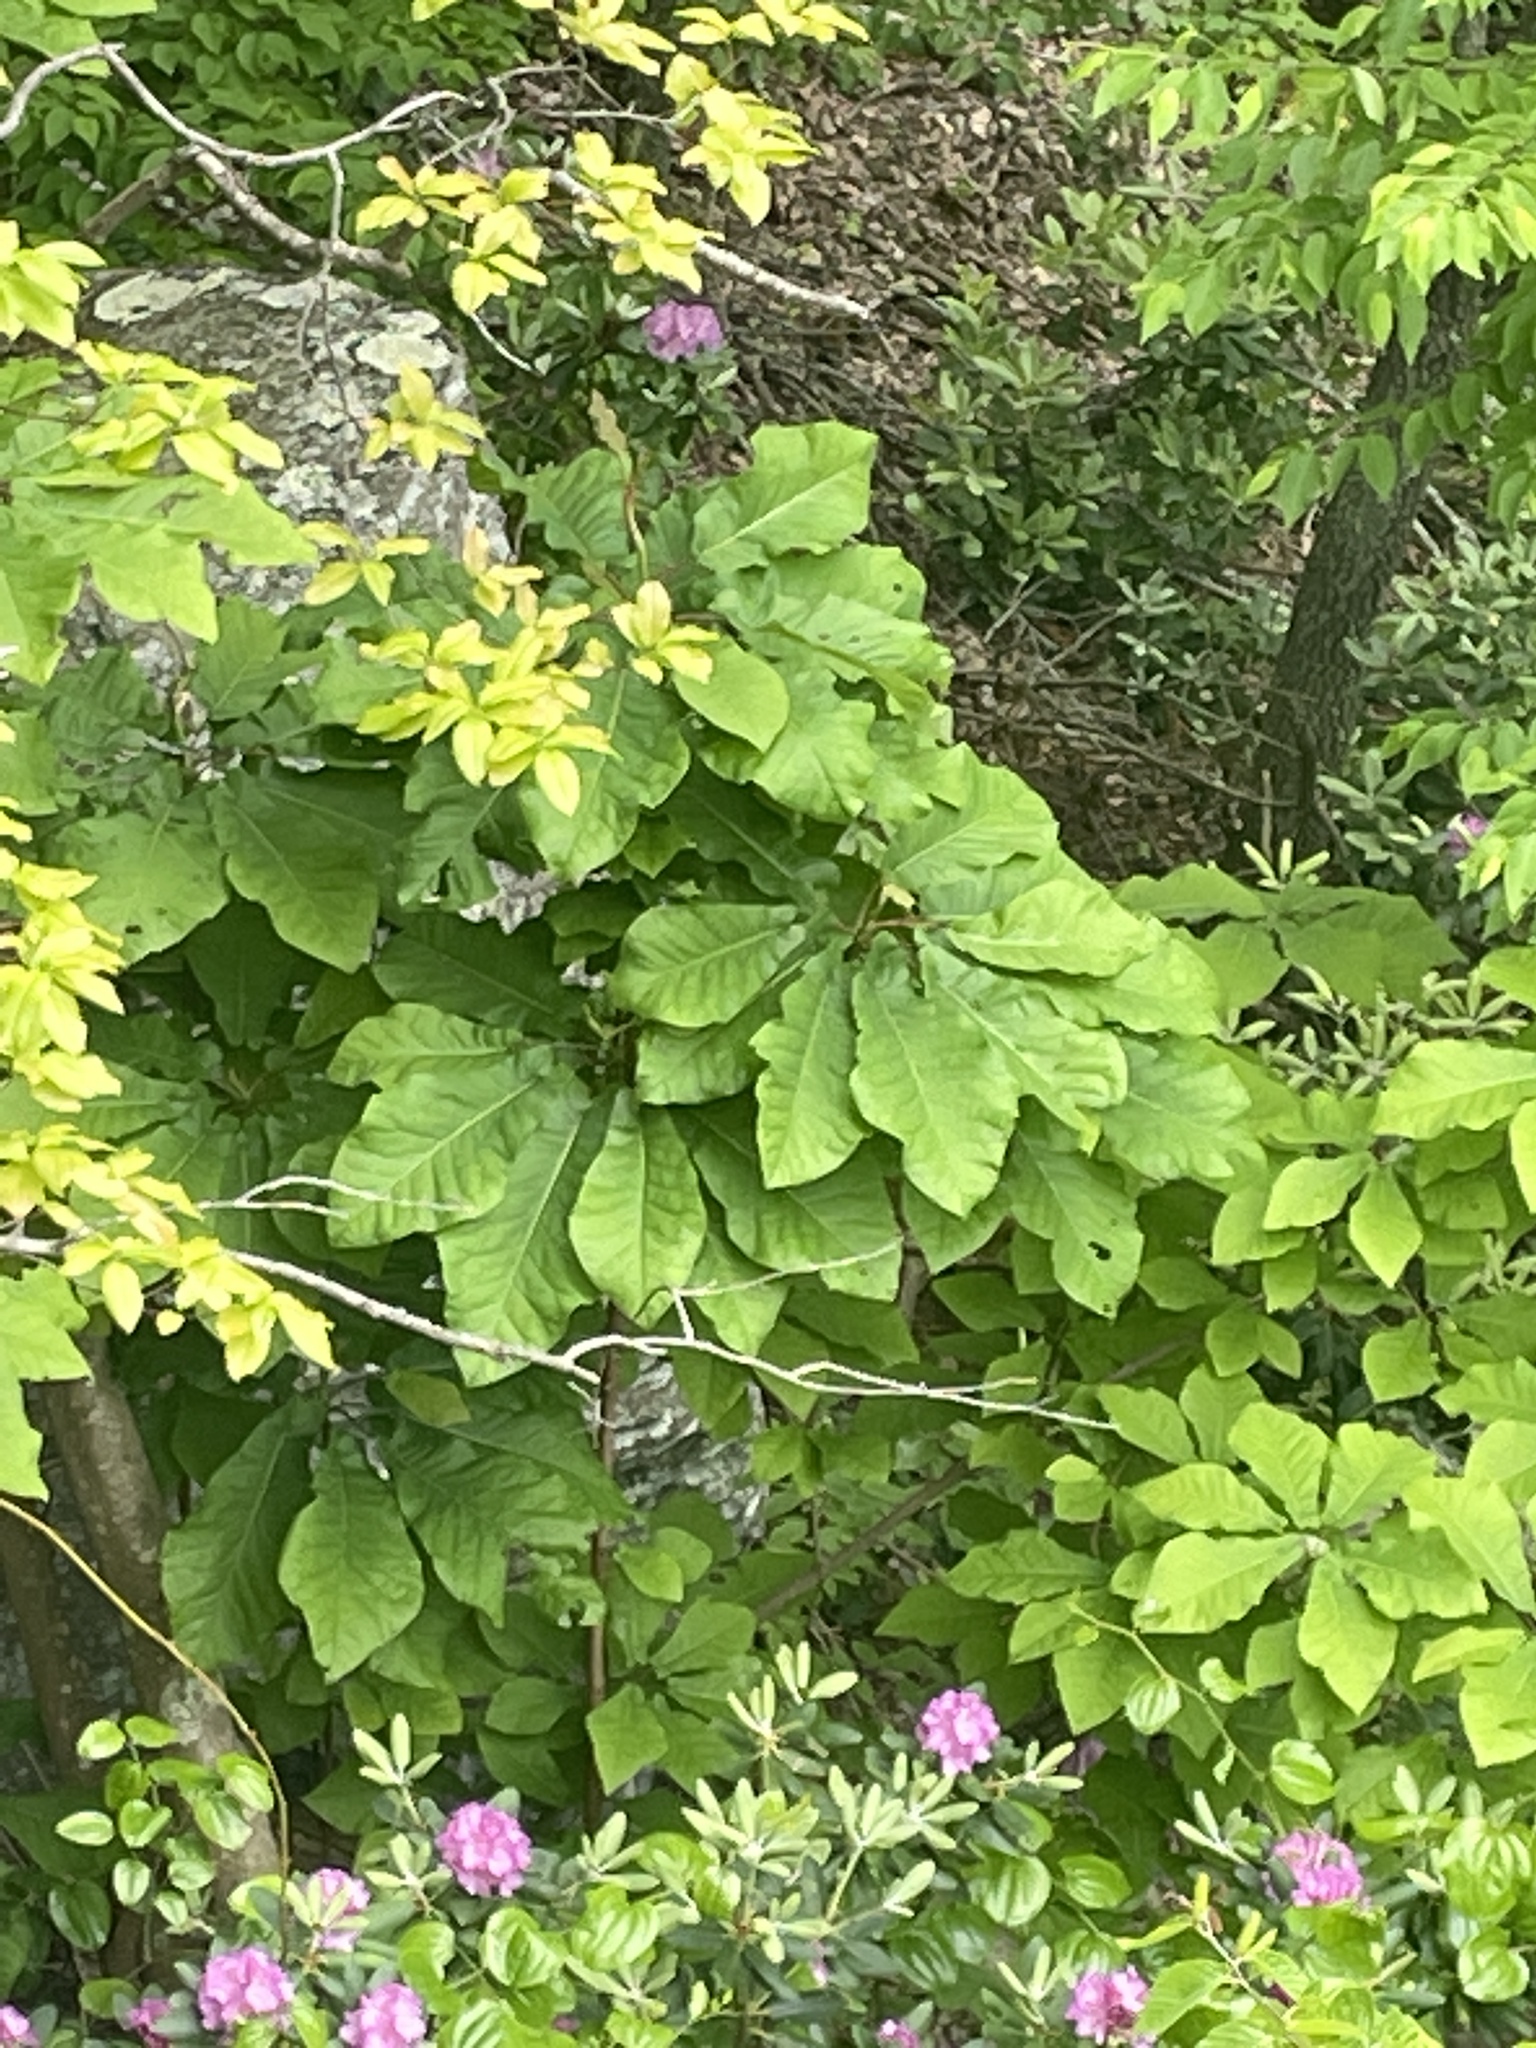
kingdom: Plantae
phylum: Tracheophyta
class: Magnoliopsida
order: Magnoliales
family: Magnoliaceae
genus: Magnolia
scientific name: Magnolia fraseri
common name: Fraser's magnolia
